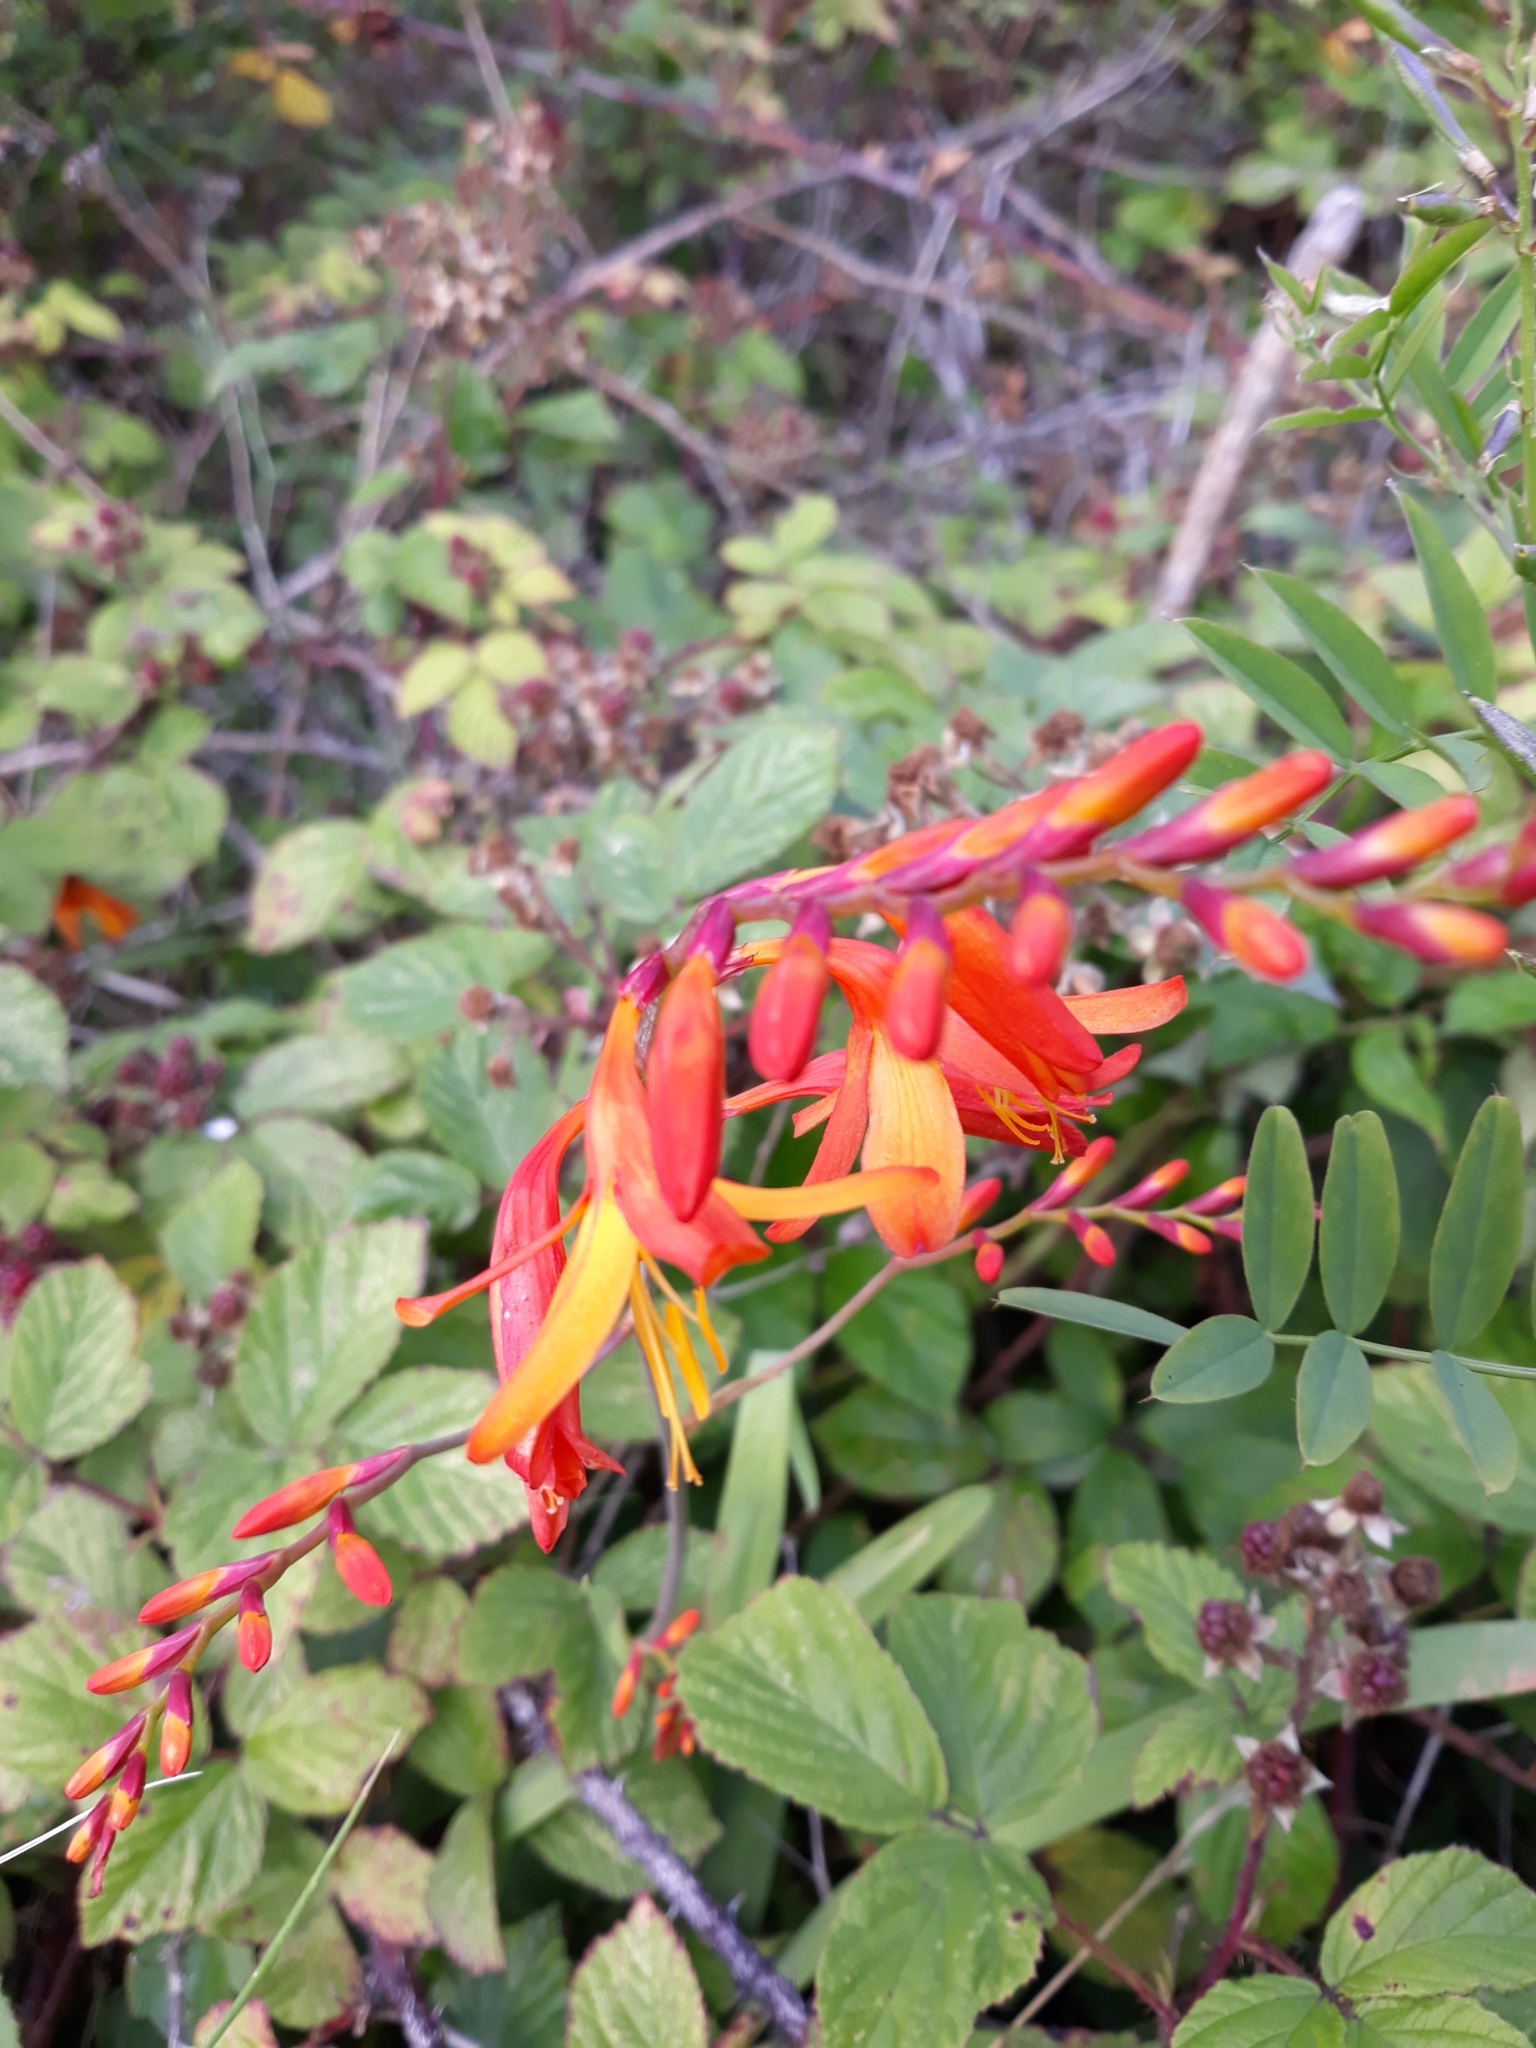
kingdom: Plantae
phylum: Tracheophyta
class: Liliopsida
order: Asparagales
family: Iridaceae
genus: Crocosmia
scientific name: Crocosmia crocosmiiflora
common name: Montbretia
